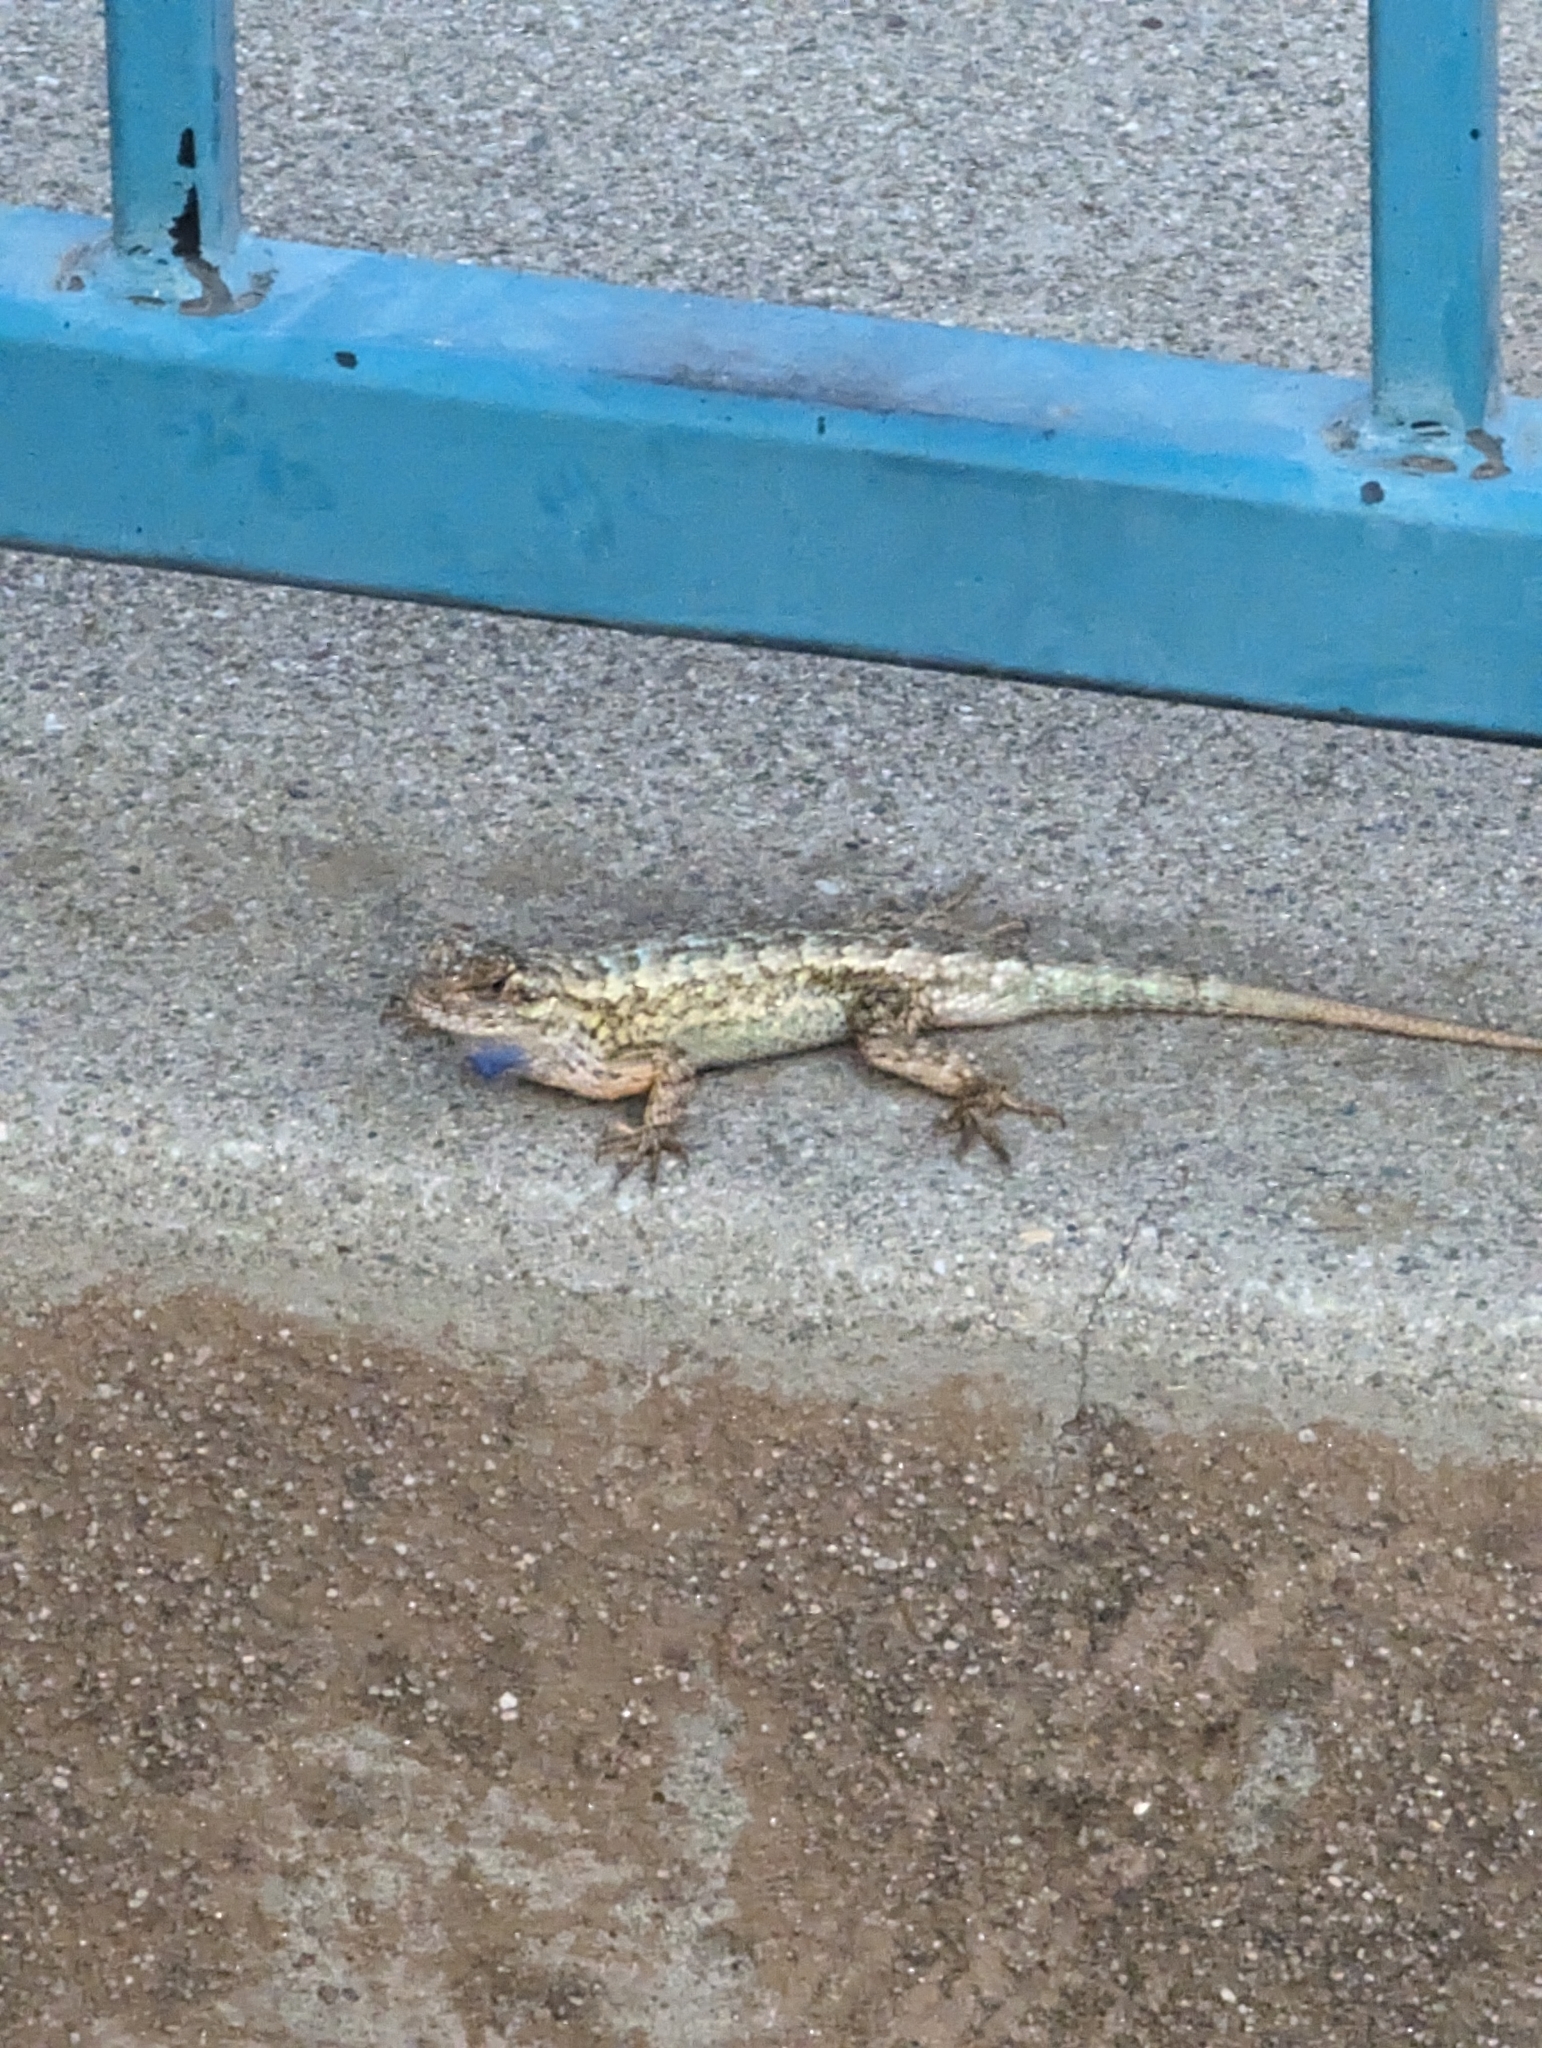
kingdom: Animalia
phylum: Chordata
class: Squamata
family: Phrynosomatidae
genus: Sceloporus
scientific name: Sceloporus occidentalis
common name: Western fence lizard
